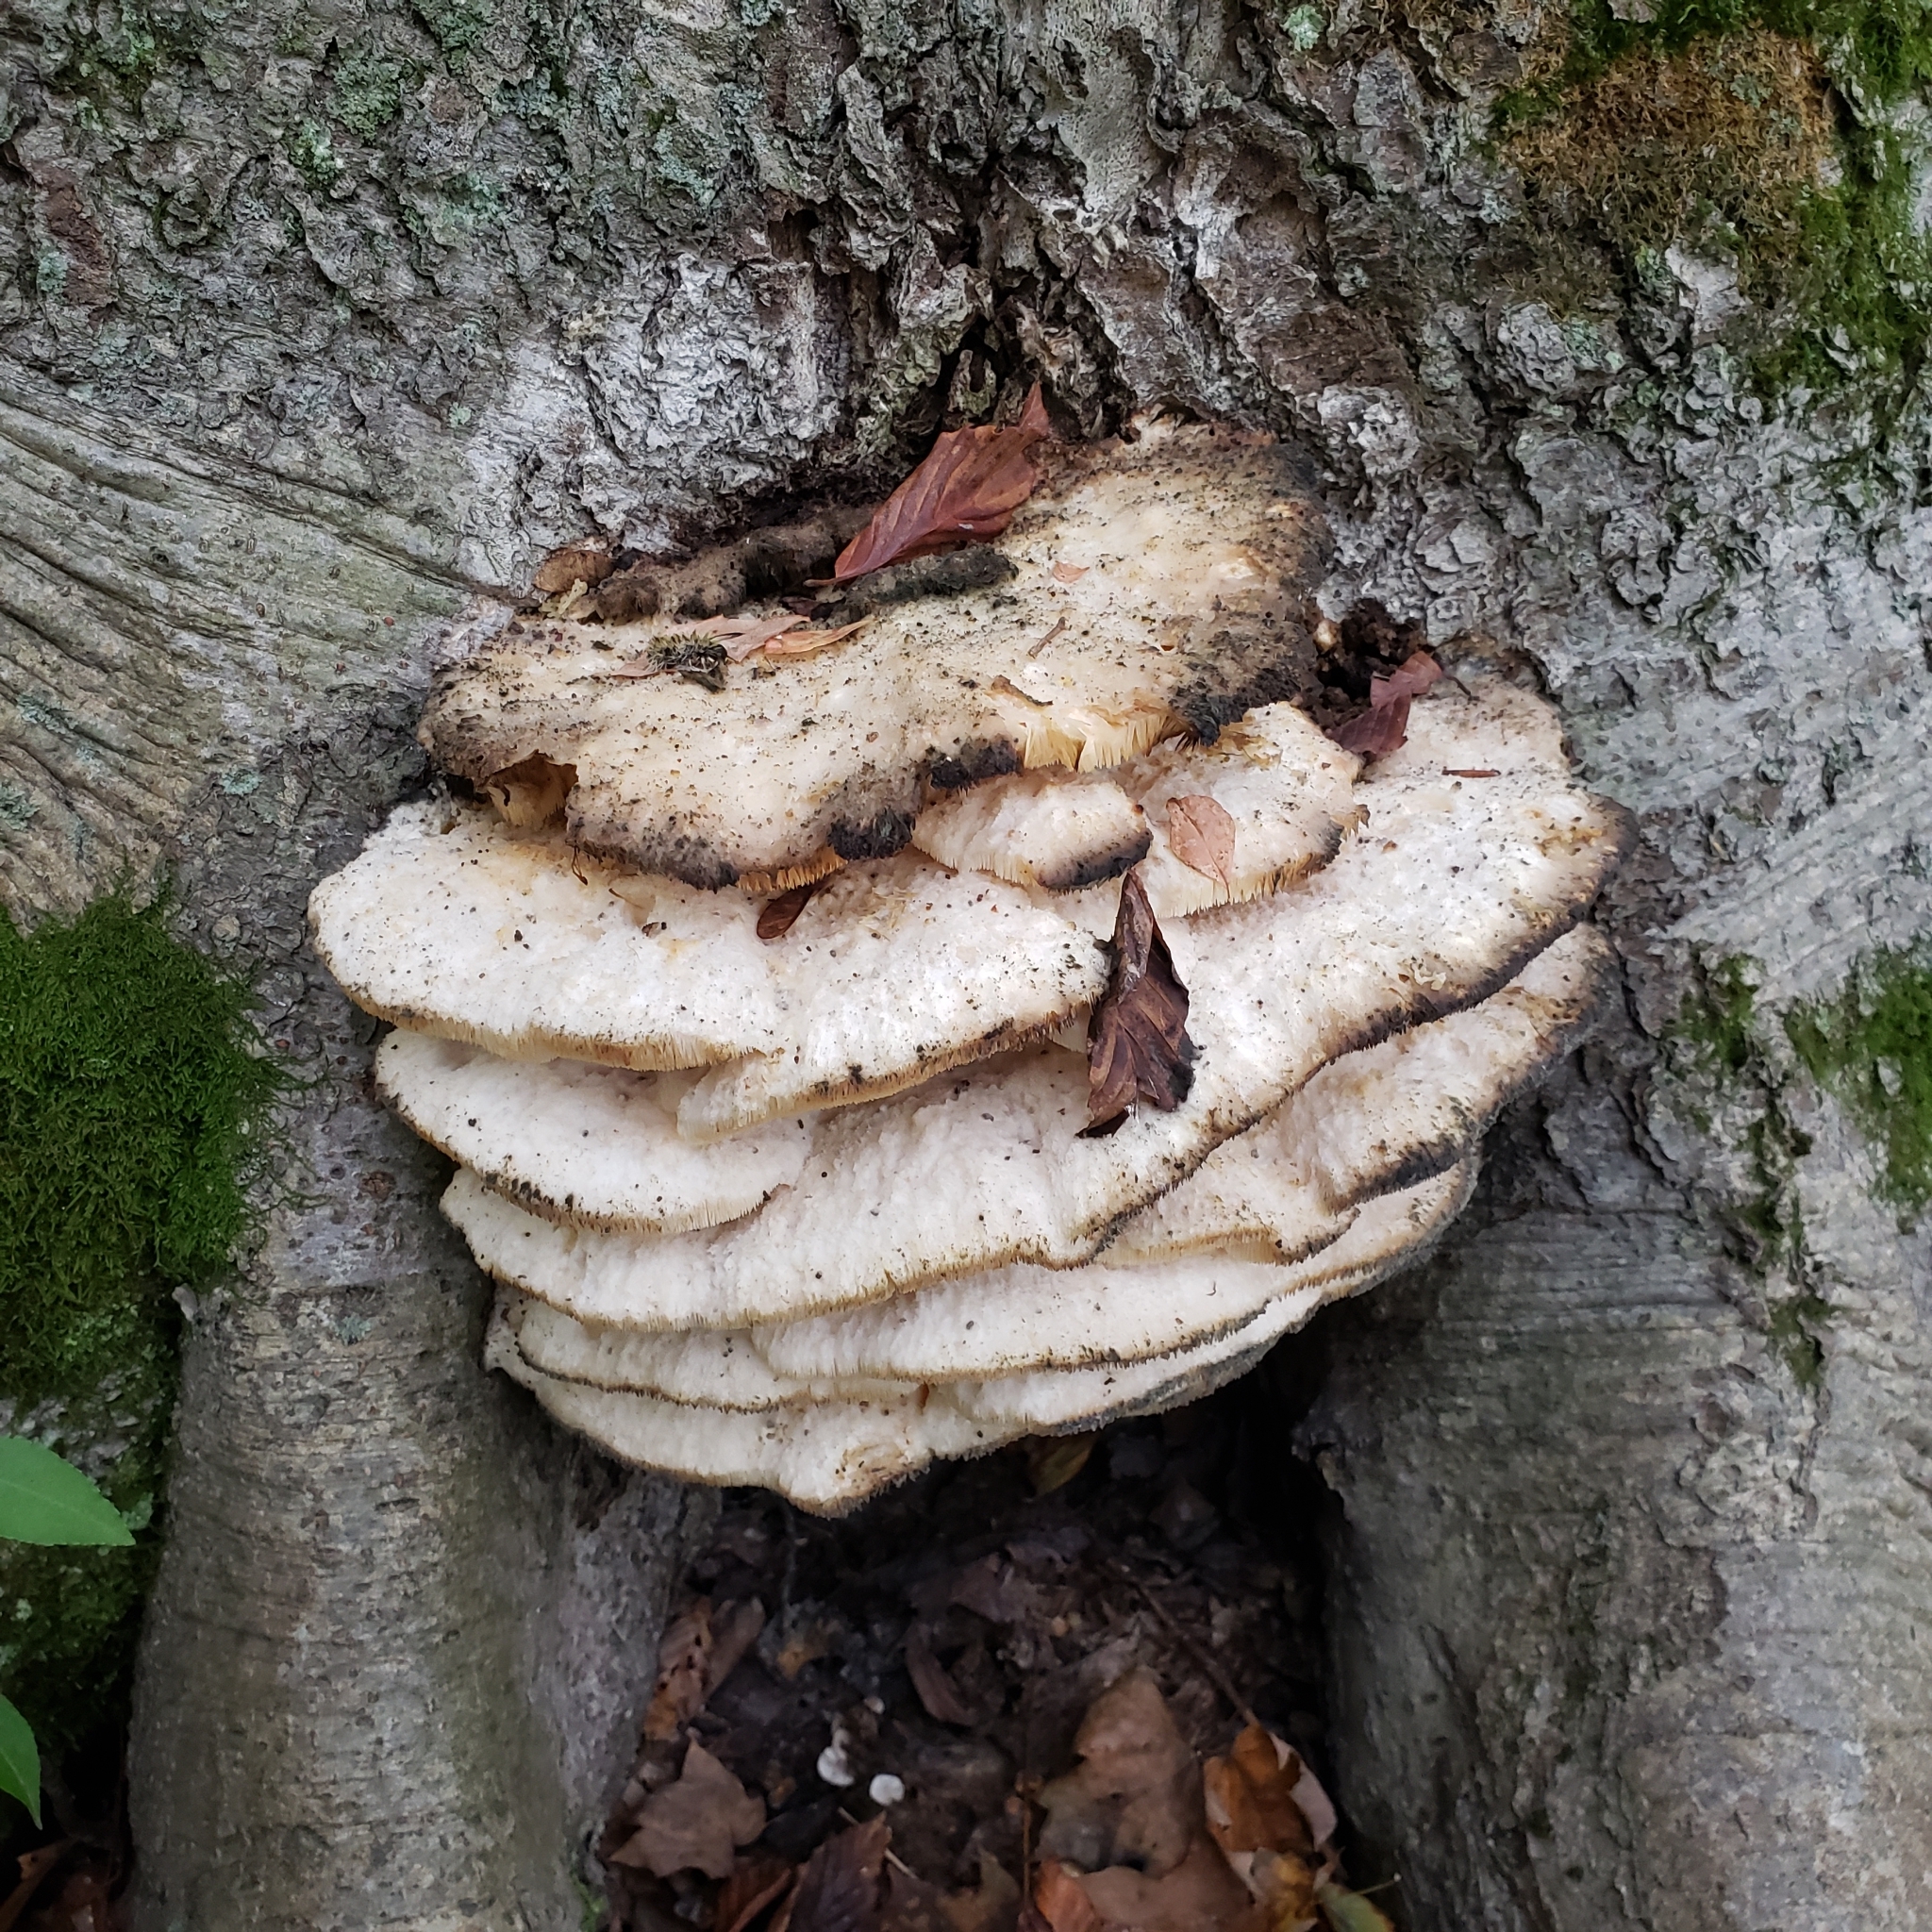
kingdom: Fungi
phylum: Basidiomycota
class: Agaricomycetes
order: Polyporales
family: Meruliaceae
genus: Climacodon
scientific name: Climacodon septentrionalis
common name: Northern tooth
